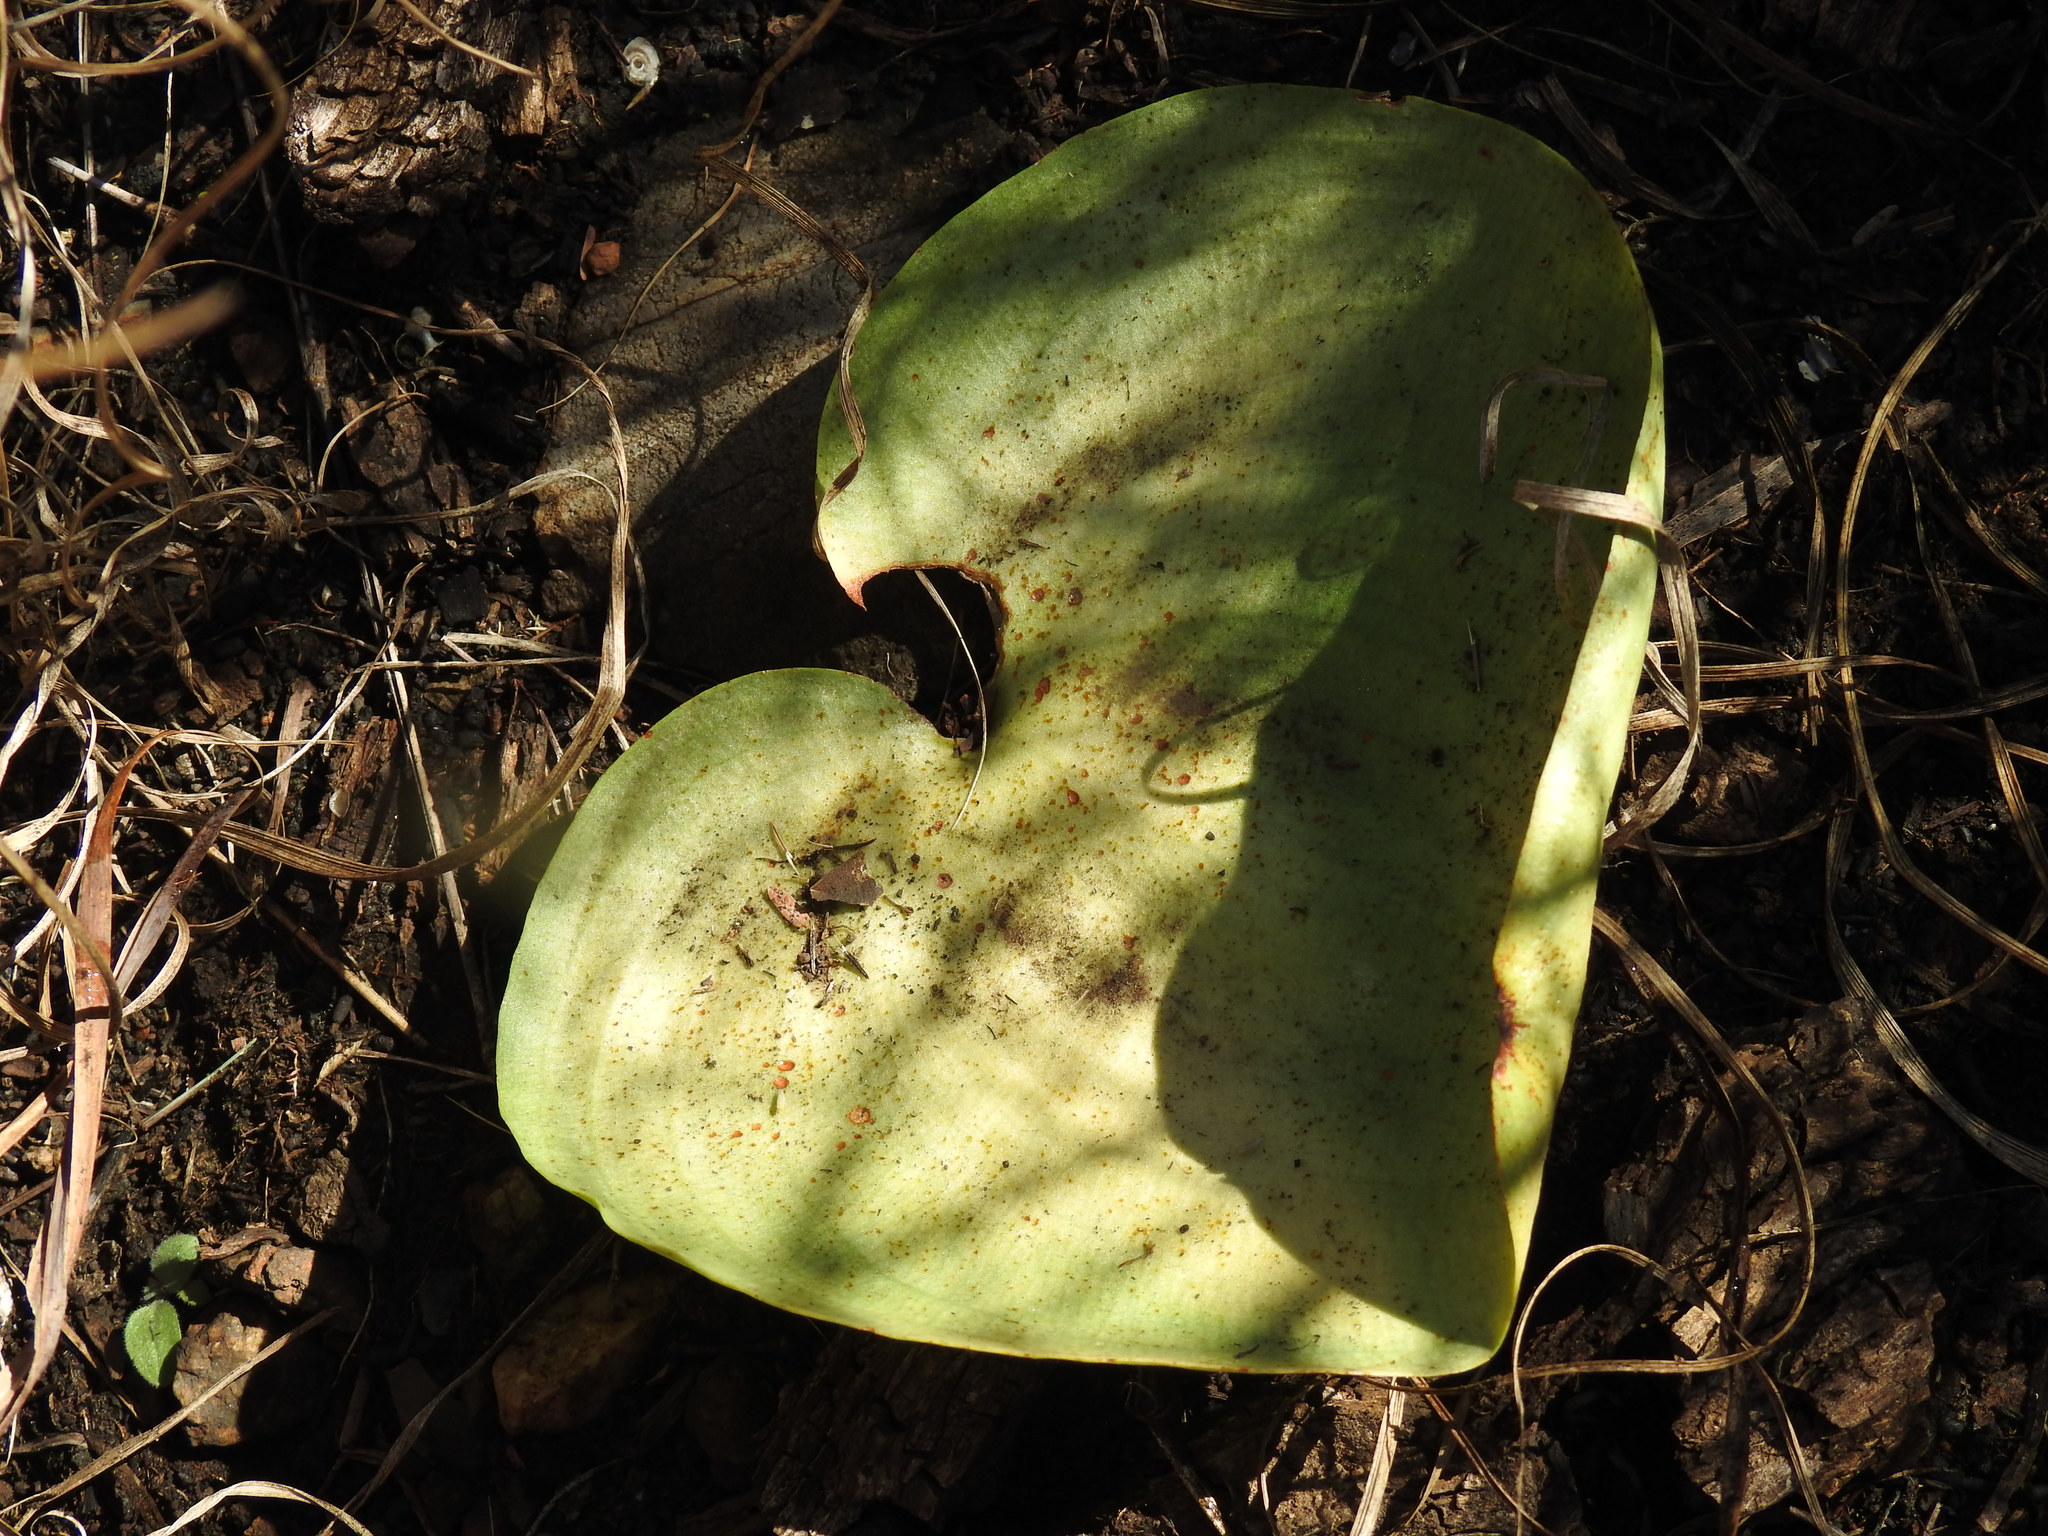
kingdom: Plantae
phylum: Tracheophyta
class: Liliopsida
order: Asparagales
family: Asparagaceae
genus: Eriospermum
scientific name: Eriospermum cooperi
